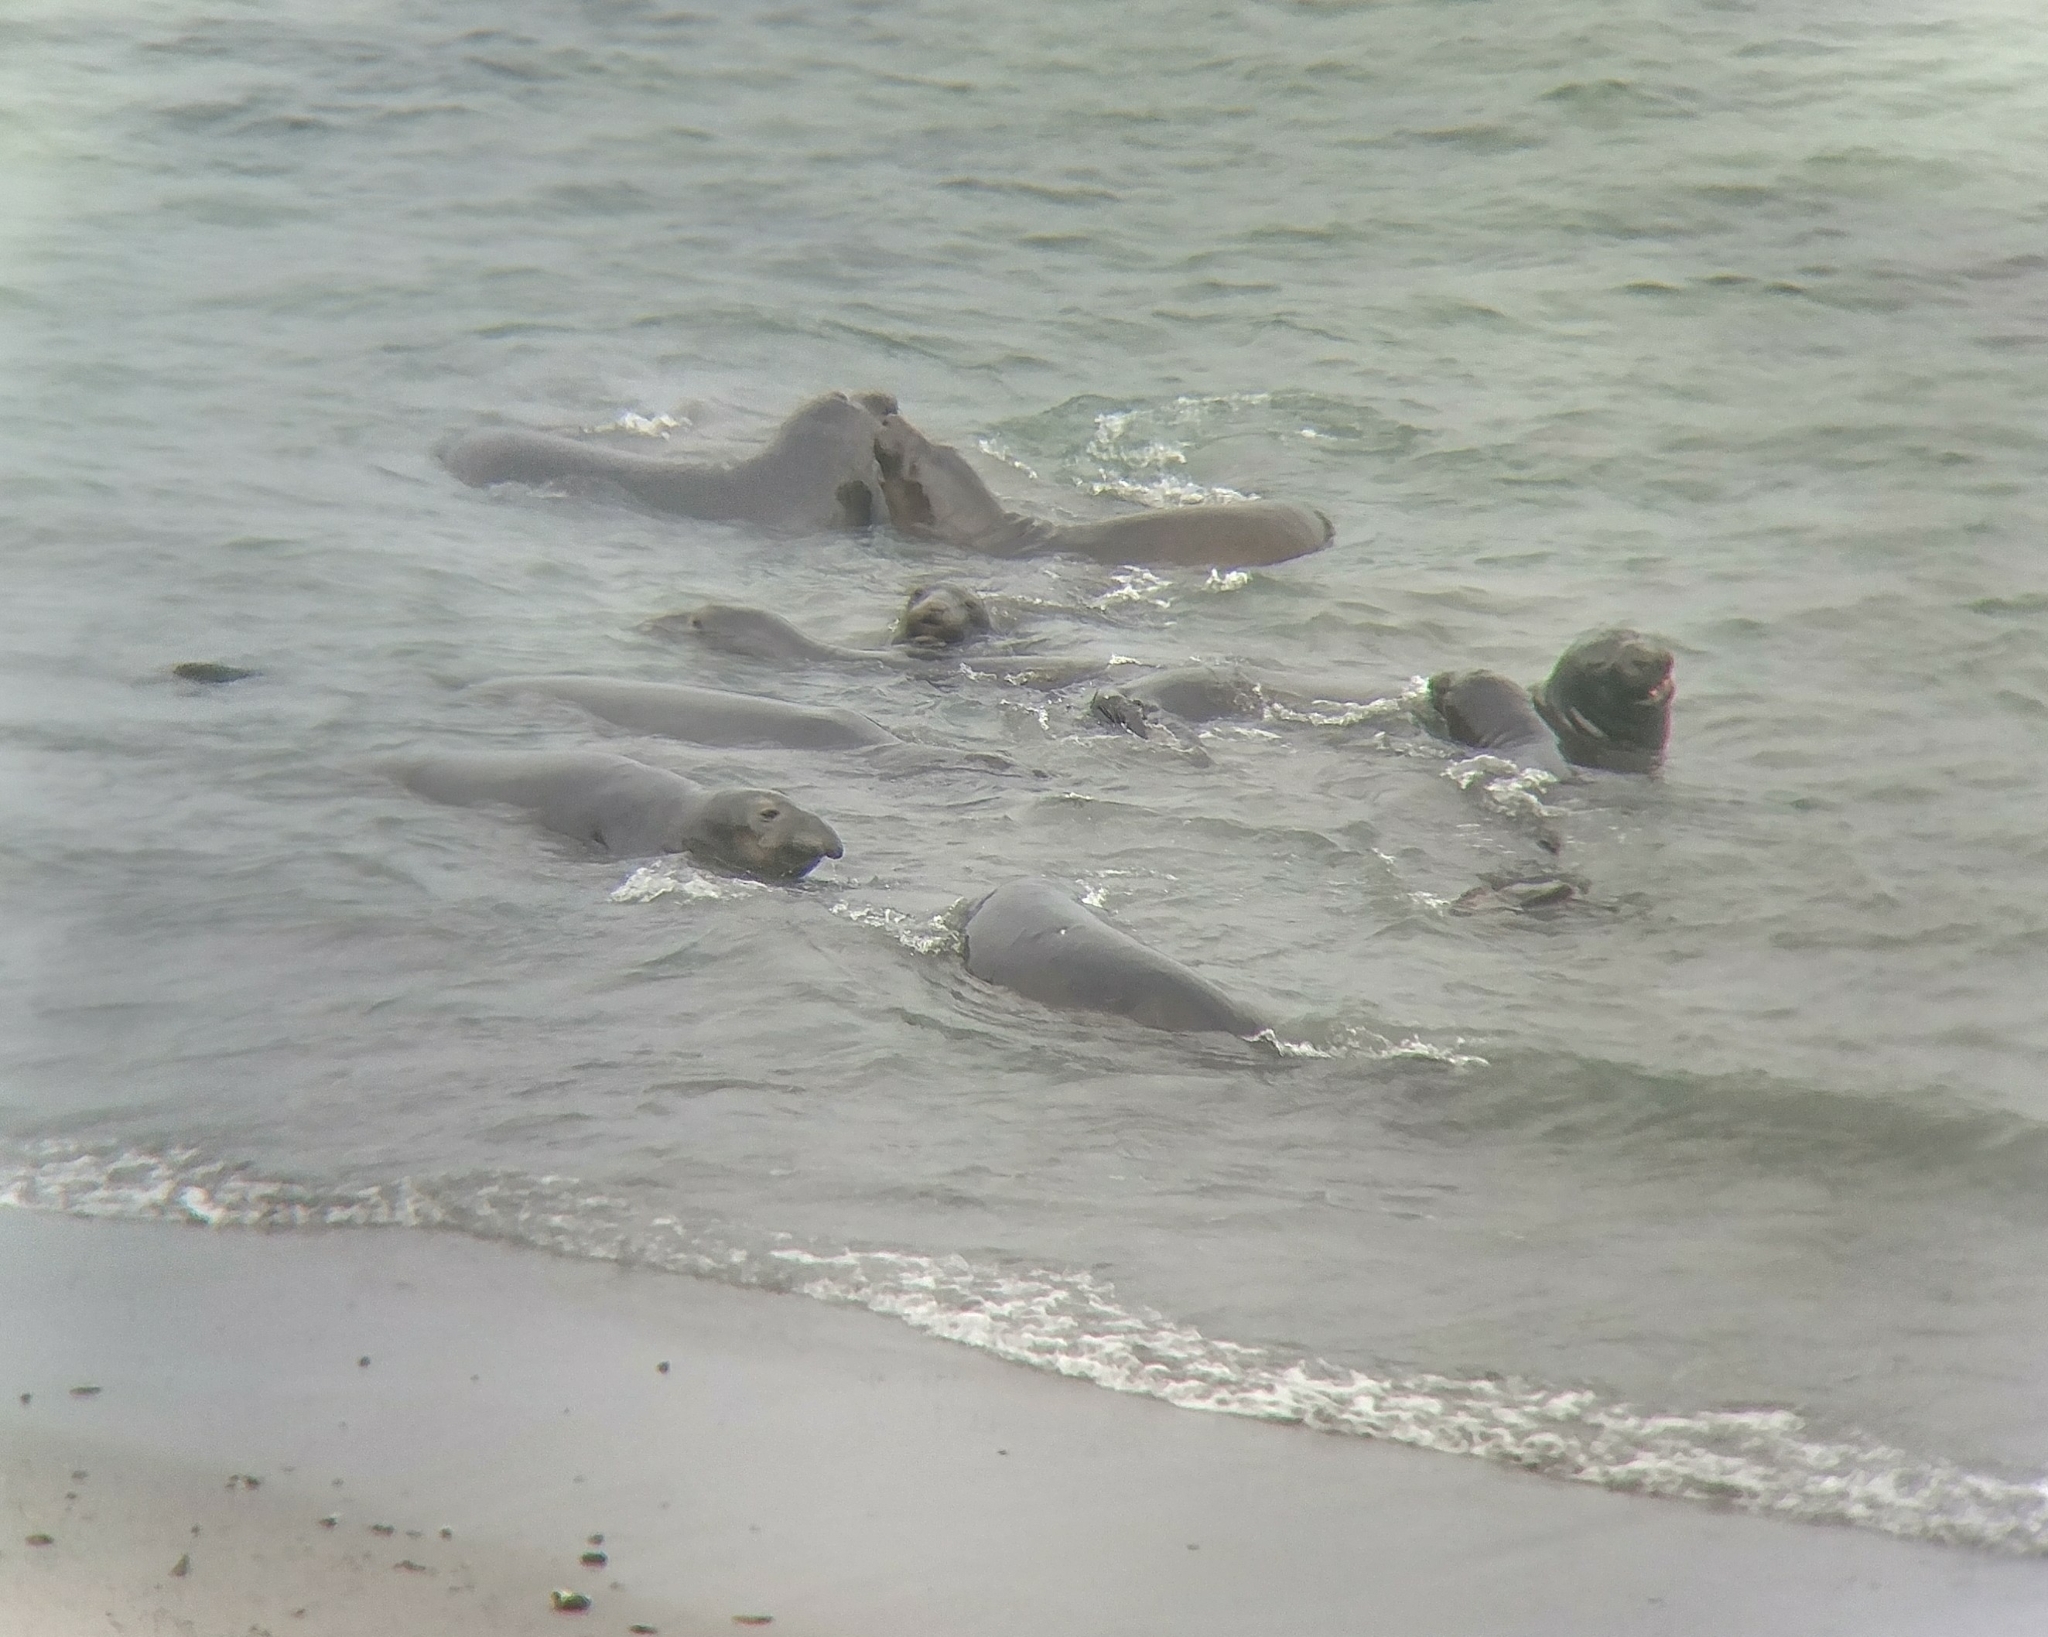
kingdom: Animalia
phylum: Chordata
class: Mammalia
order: Carnivora
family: Phocidae
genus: Mirounga
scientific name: Mirounga angustirostris
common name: Northern elephant seal
